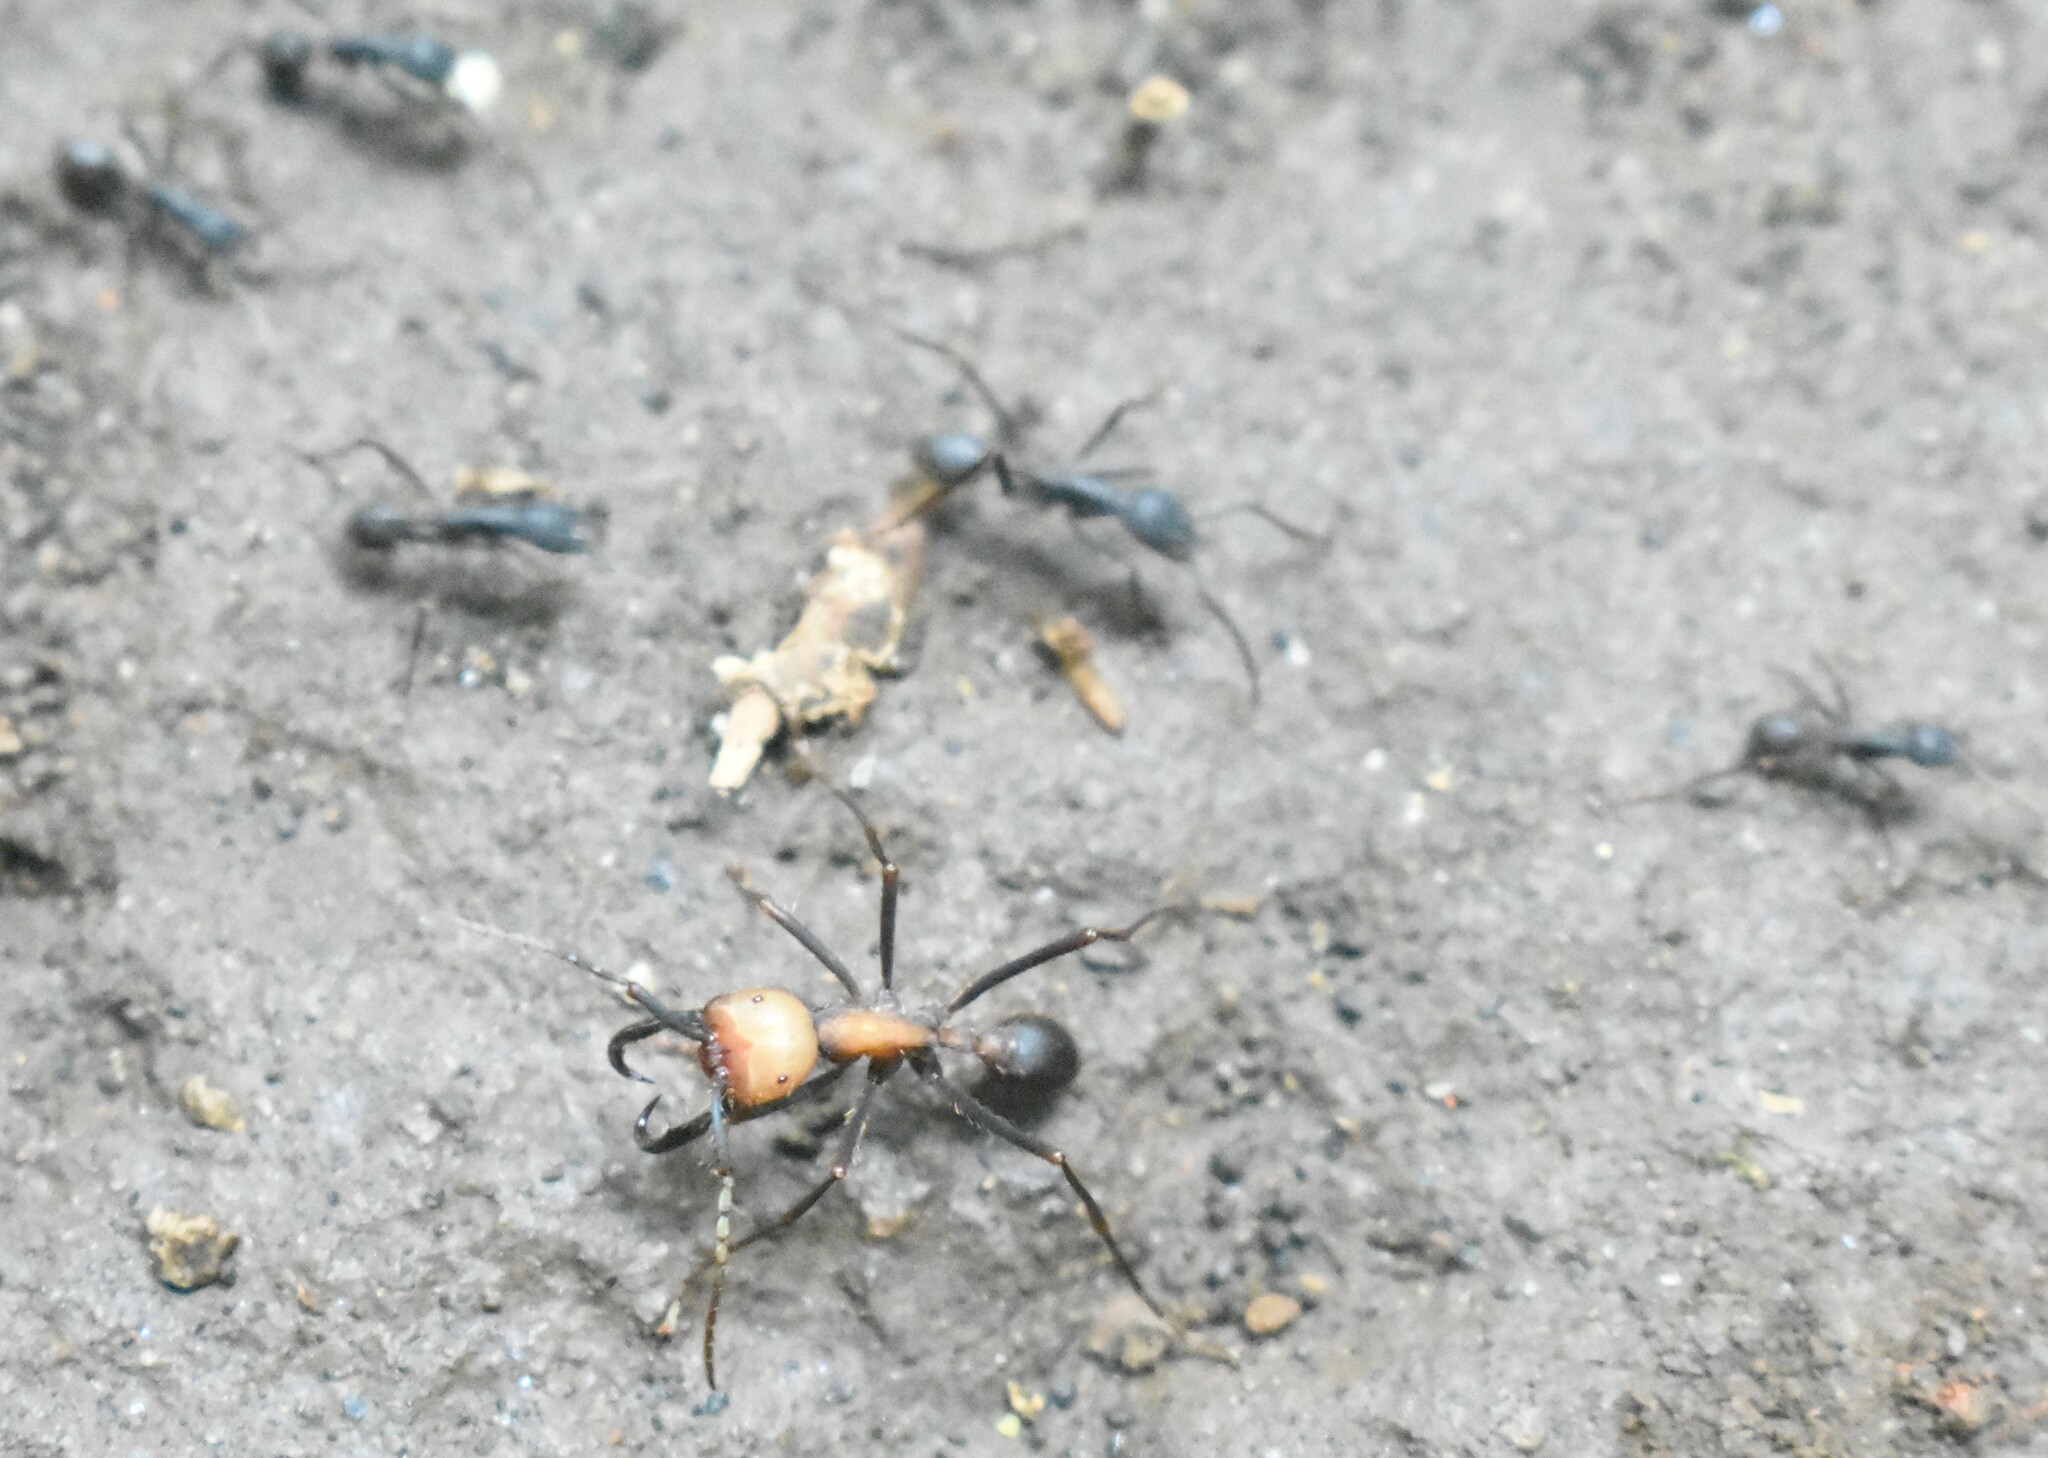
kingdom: Animalia
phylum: Arthropoda
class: Insecta
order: Hymenoptera
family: Formicidae
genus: Eciton
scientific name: Eciton burchellii
